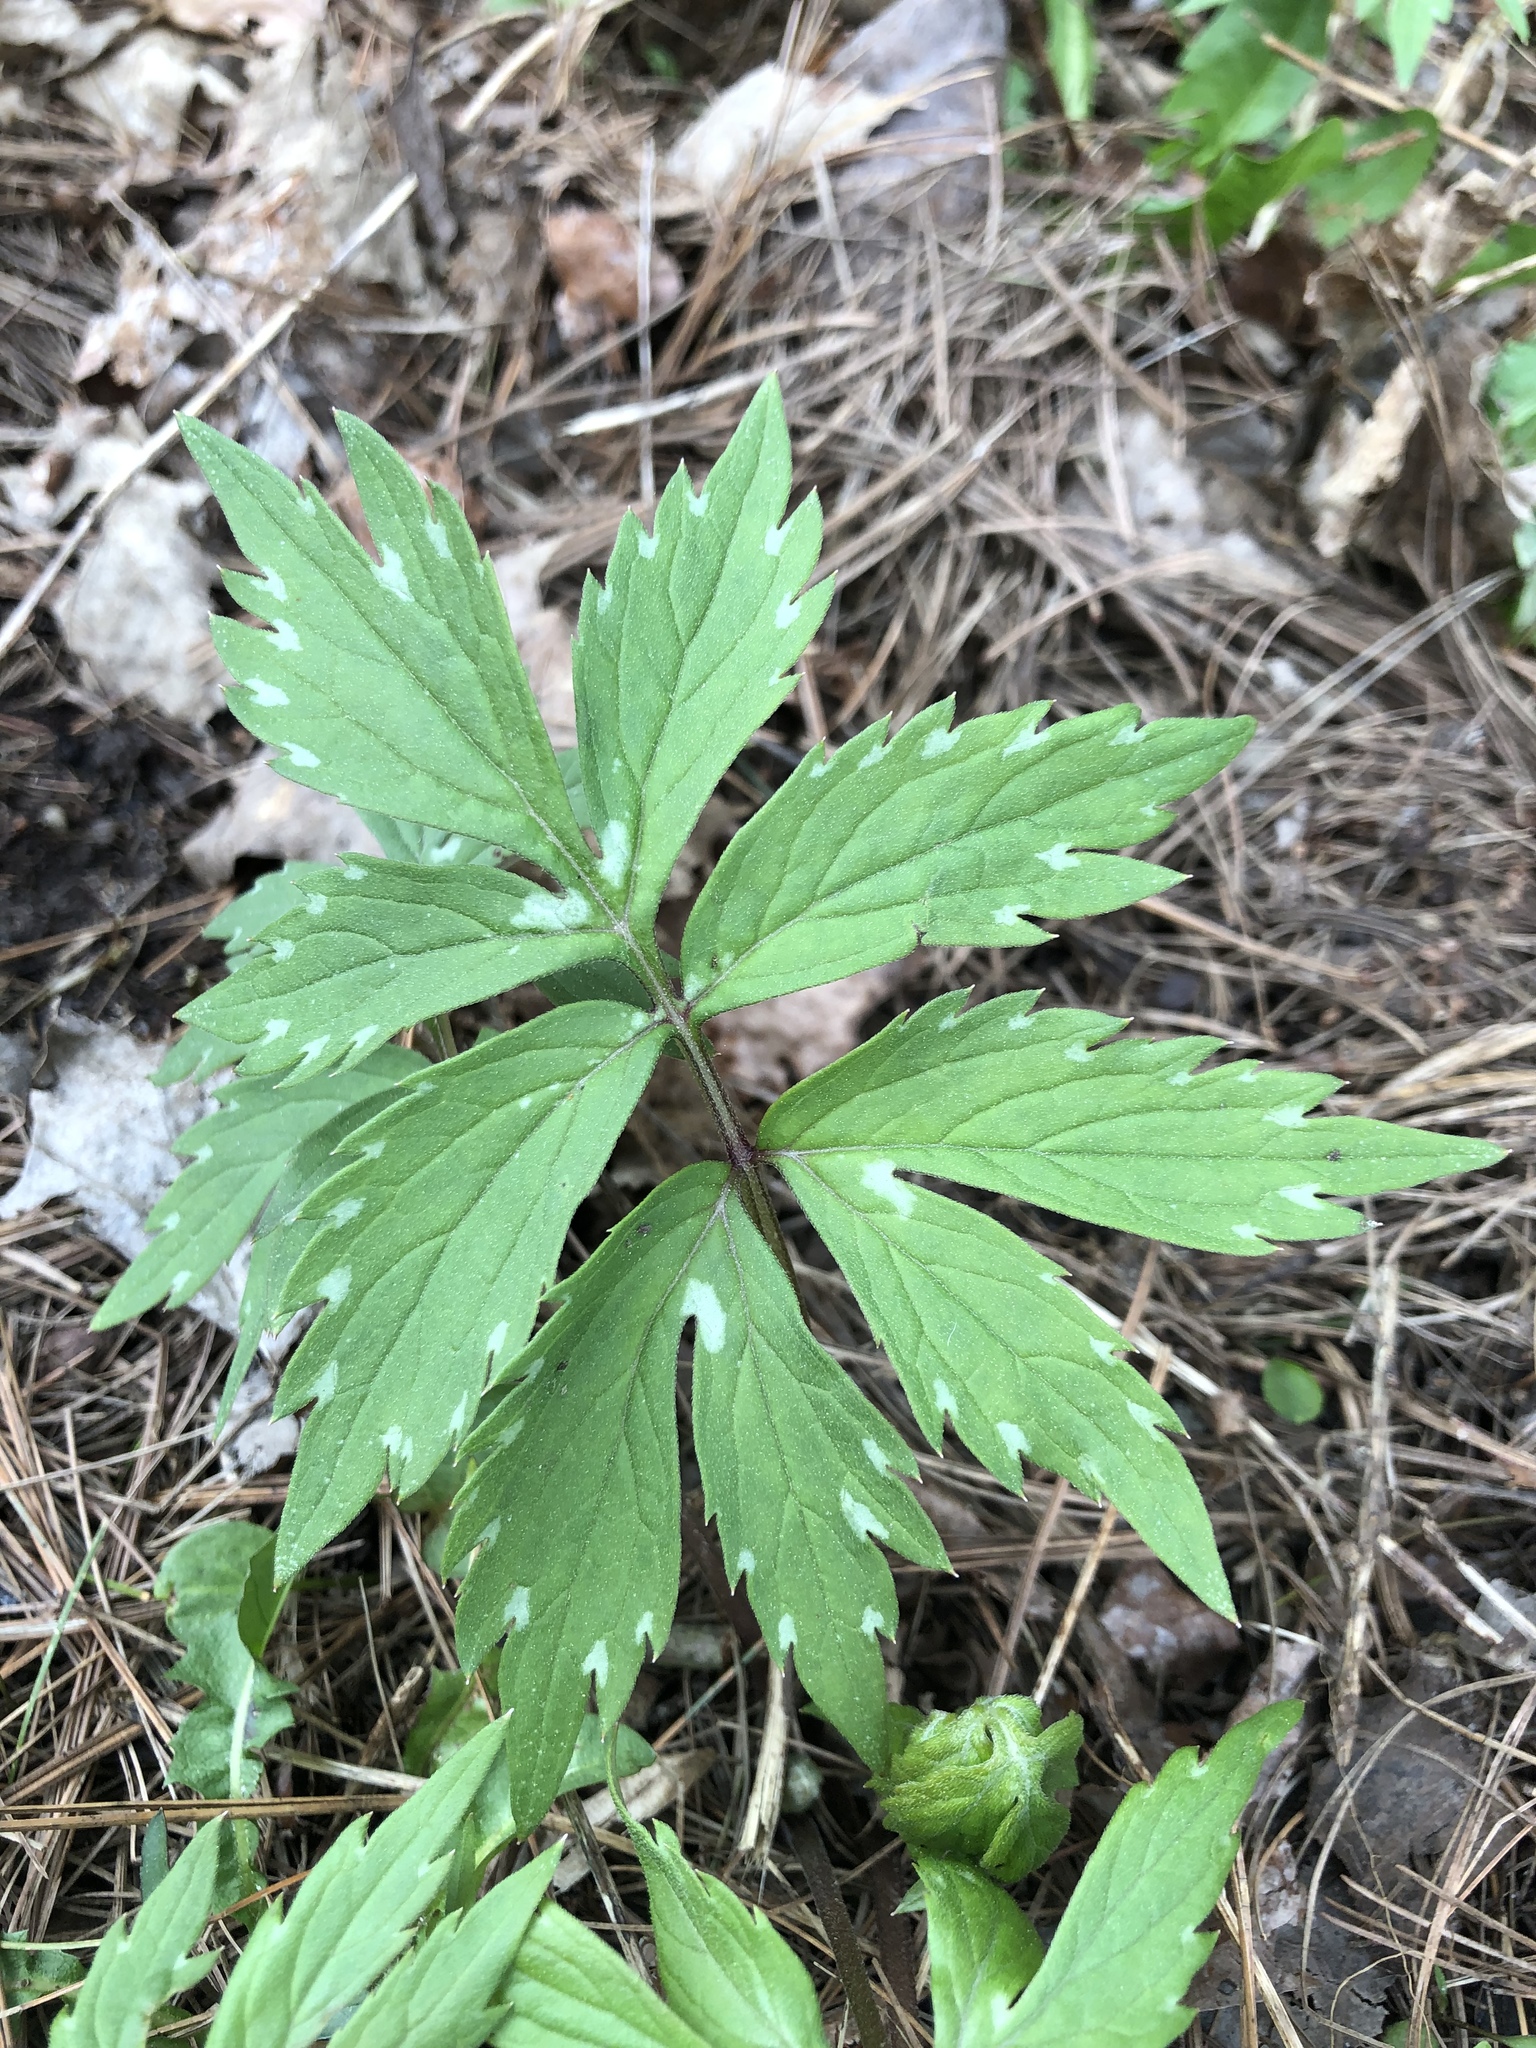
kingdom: Plantae
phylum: Tracheophyta
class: Magnoliopsida
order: Boraginales
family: Hydrophyllaceae
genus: Hydrophyllum
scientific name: Hydrophyllum virginianum
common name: Virginia waterleaf
